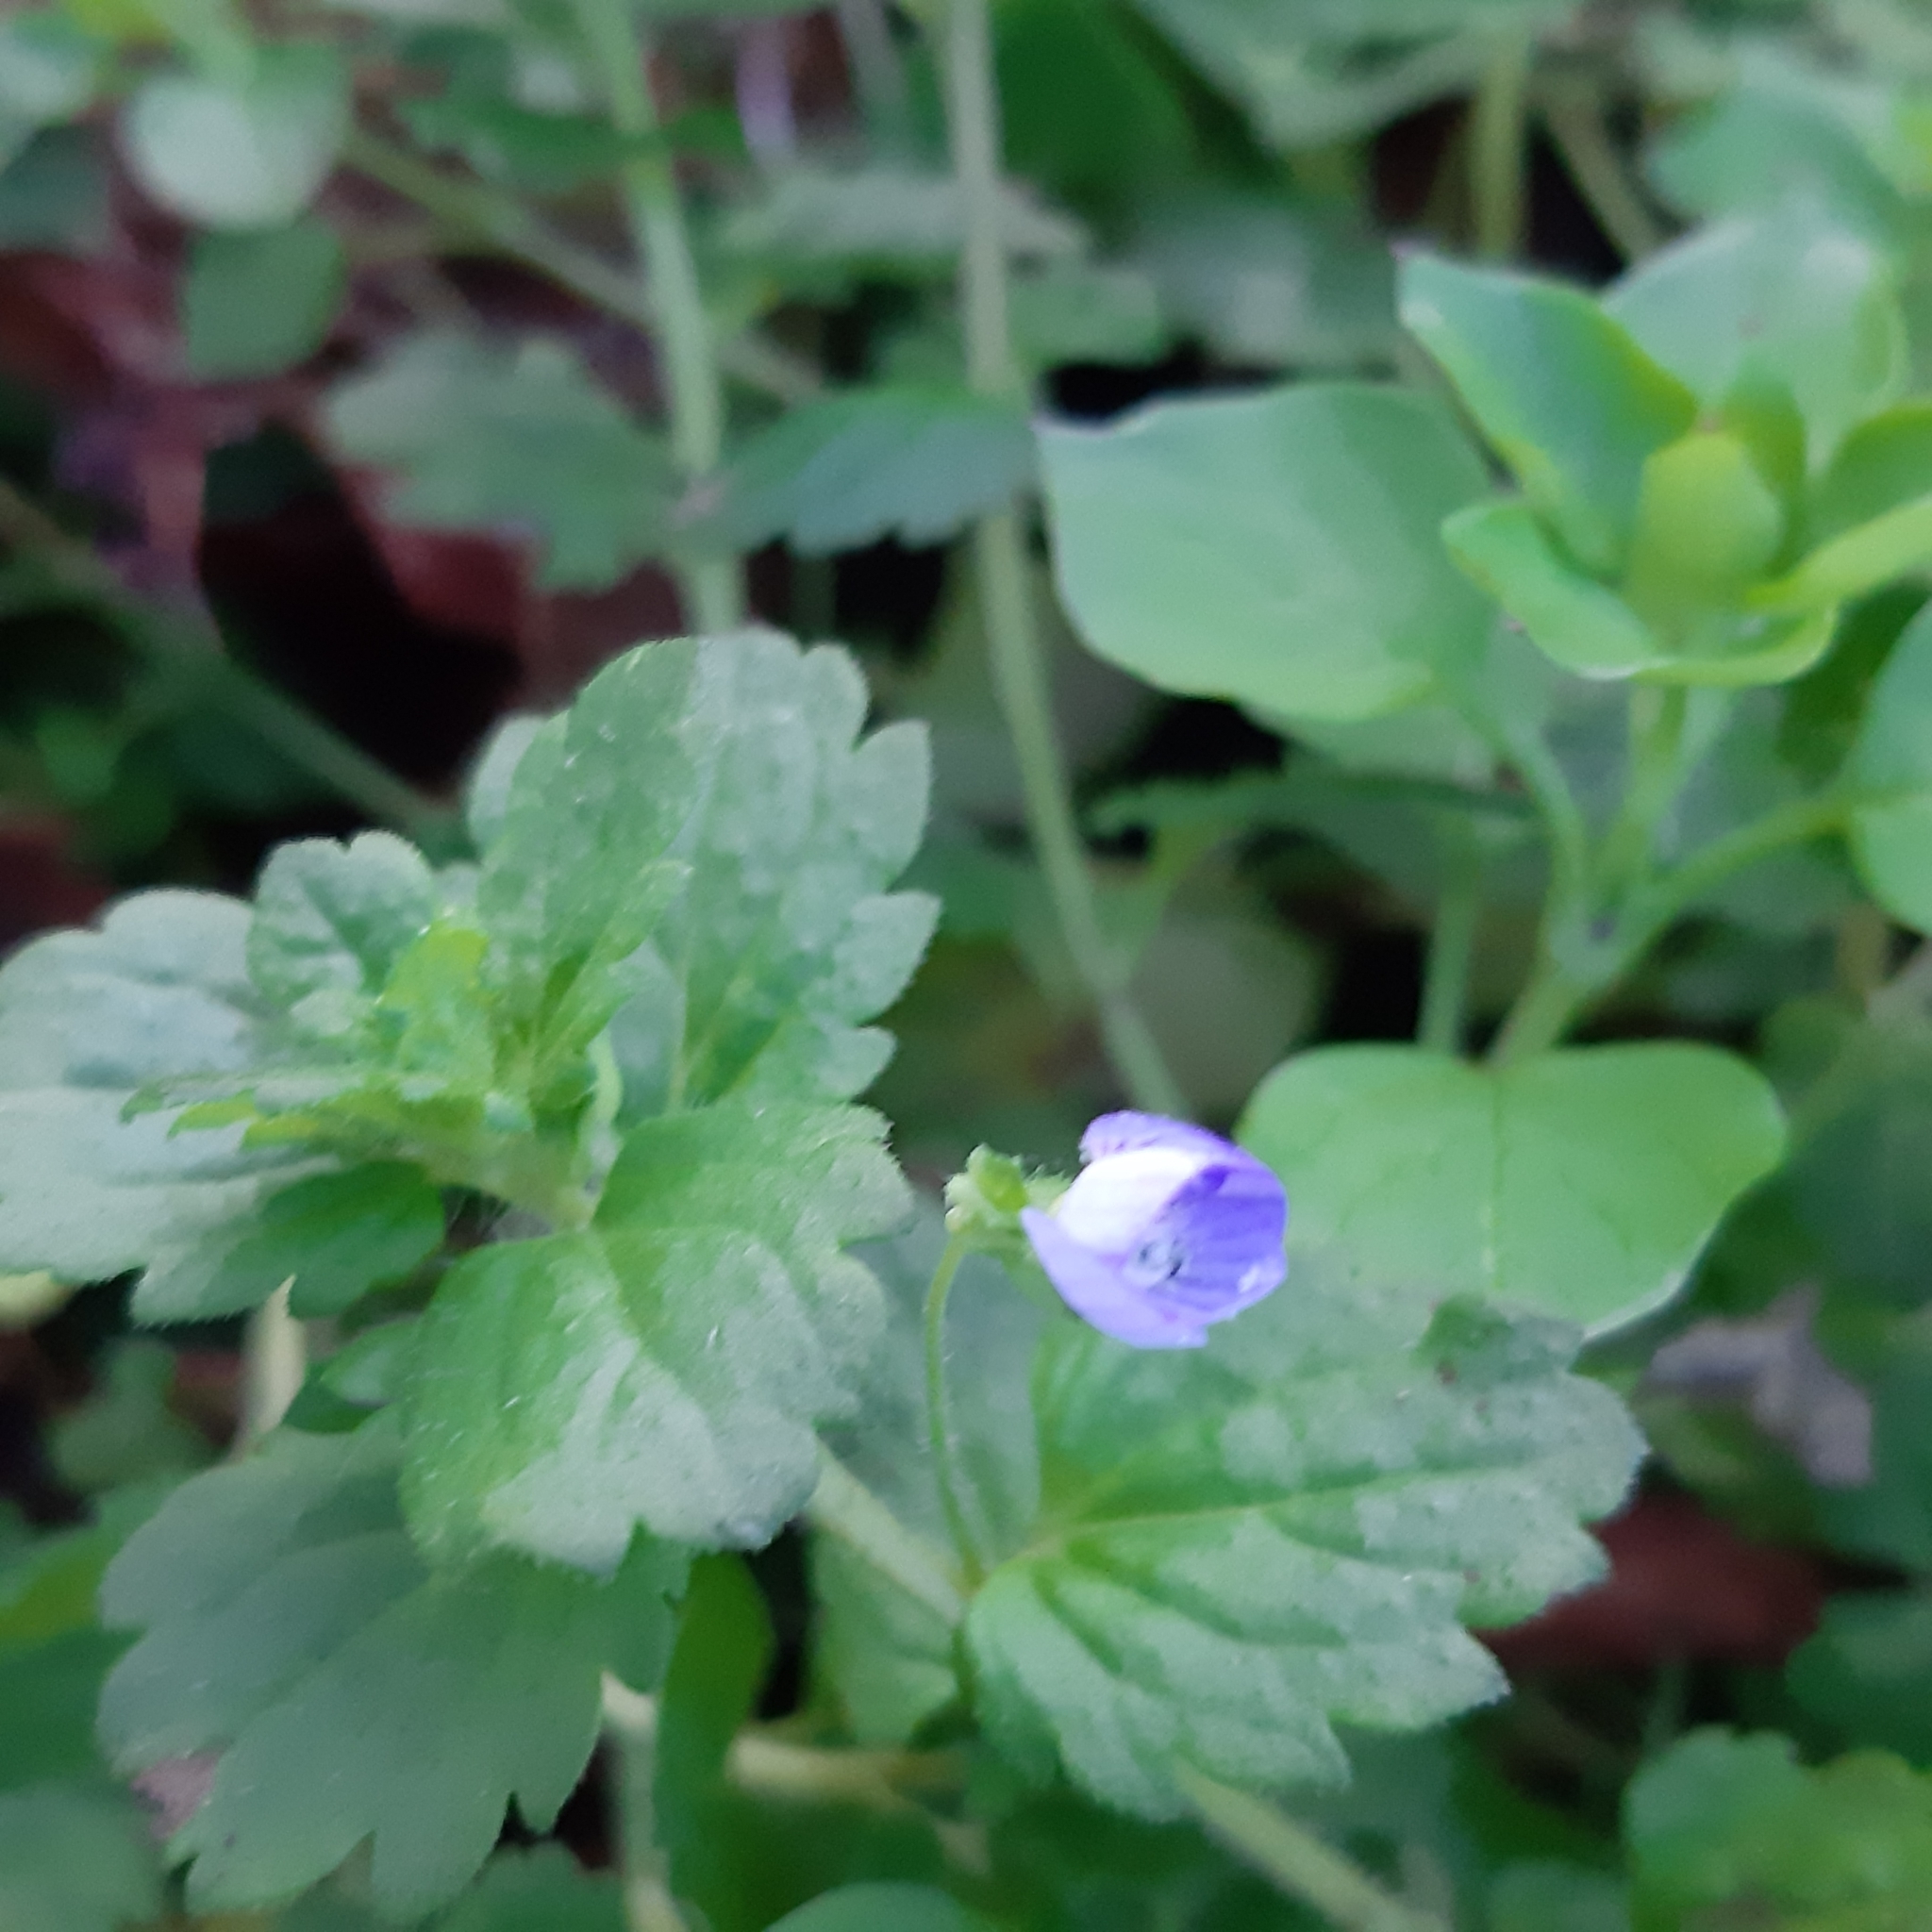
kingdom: Plantae
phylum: Tracheophyta
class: Magnoliopsida
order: Lamiales
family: Plantaginaceae
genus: Veronica
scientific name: Veronica persica
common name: Common field-speedwell
